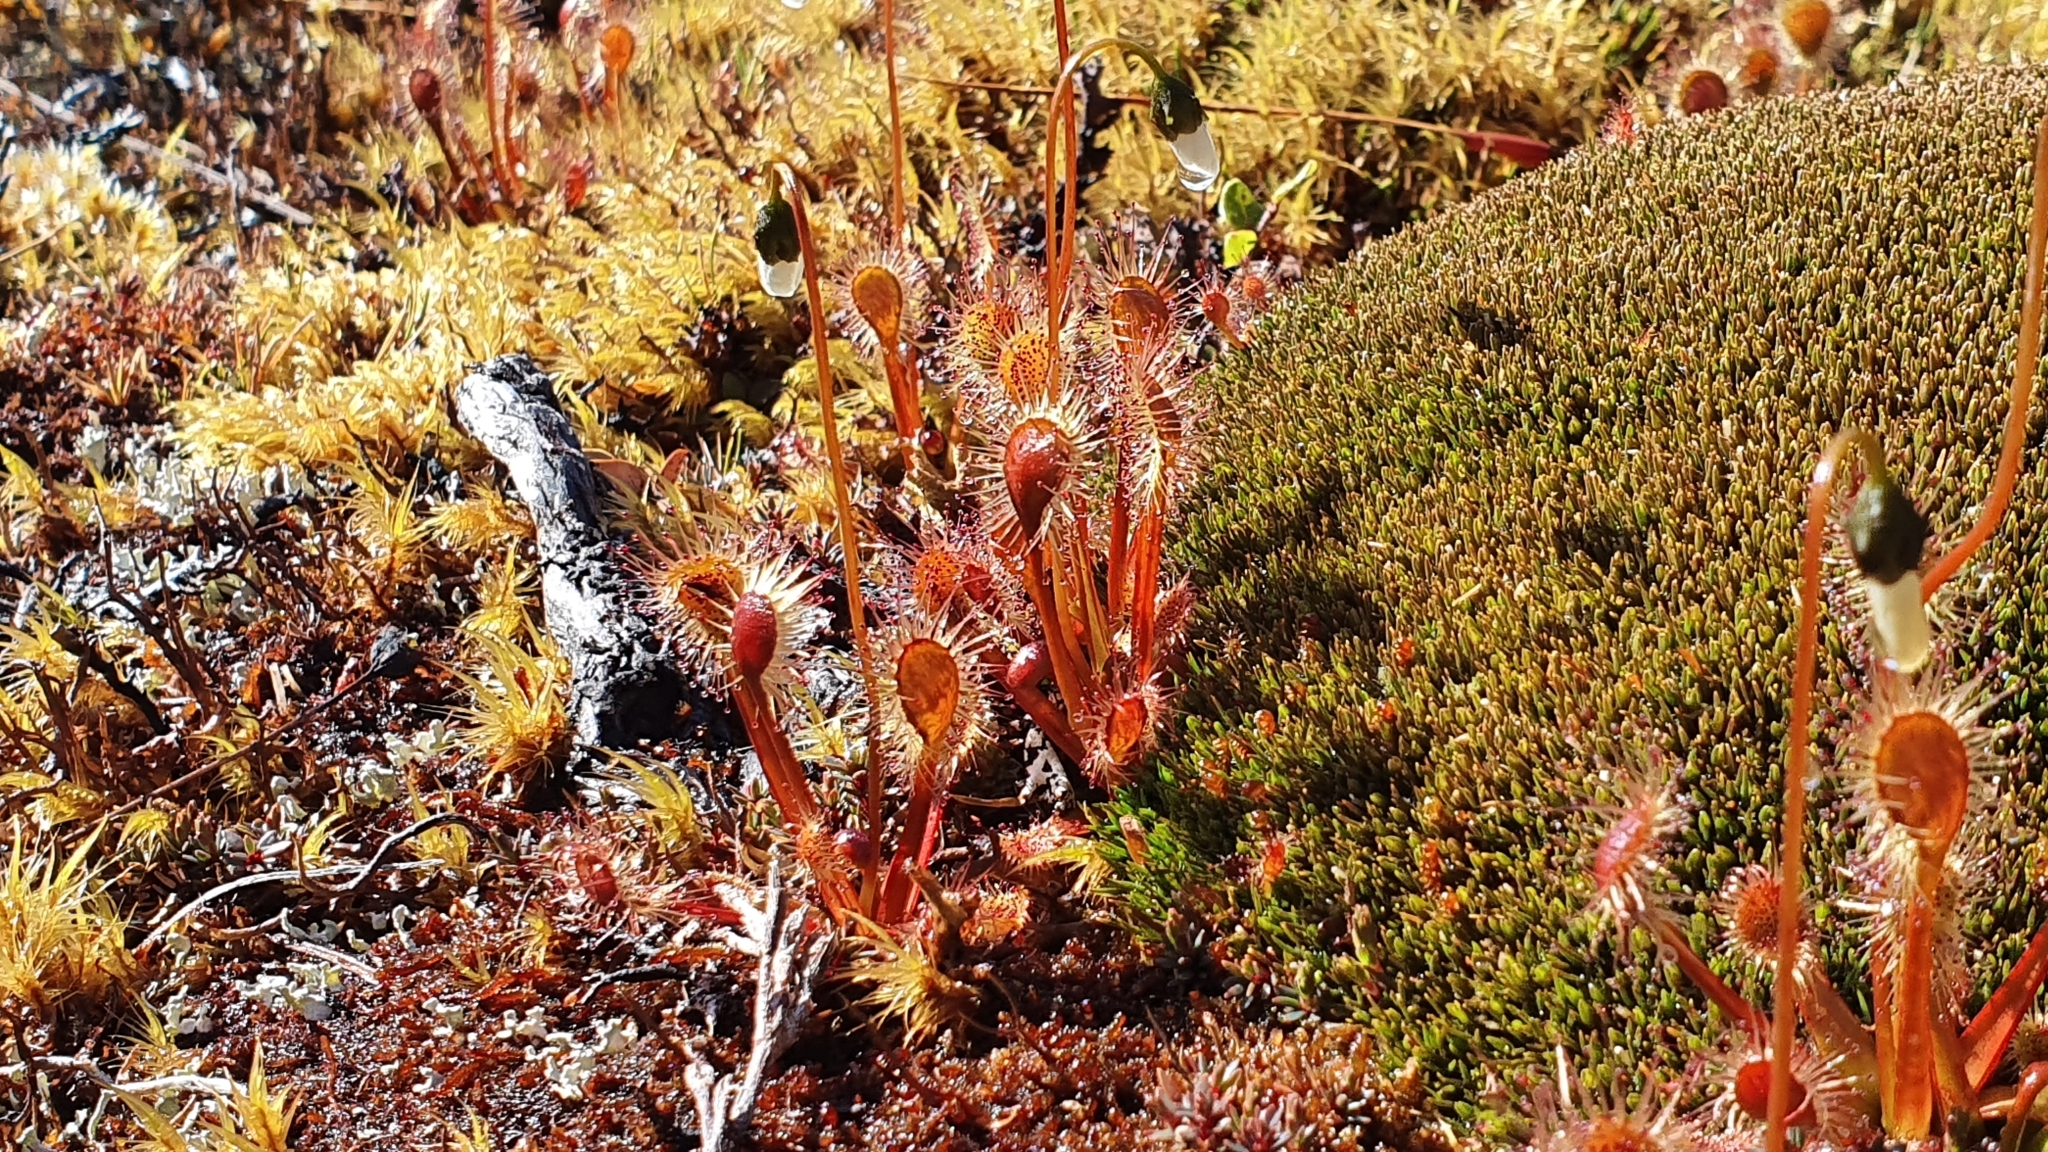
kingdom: Plantae
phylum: Tracheophyta
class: Magnoliopsida
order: Caryophyllales
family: Droseraceae
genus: Drosera
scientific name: Drosera stenopetala
